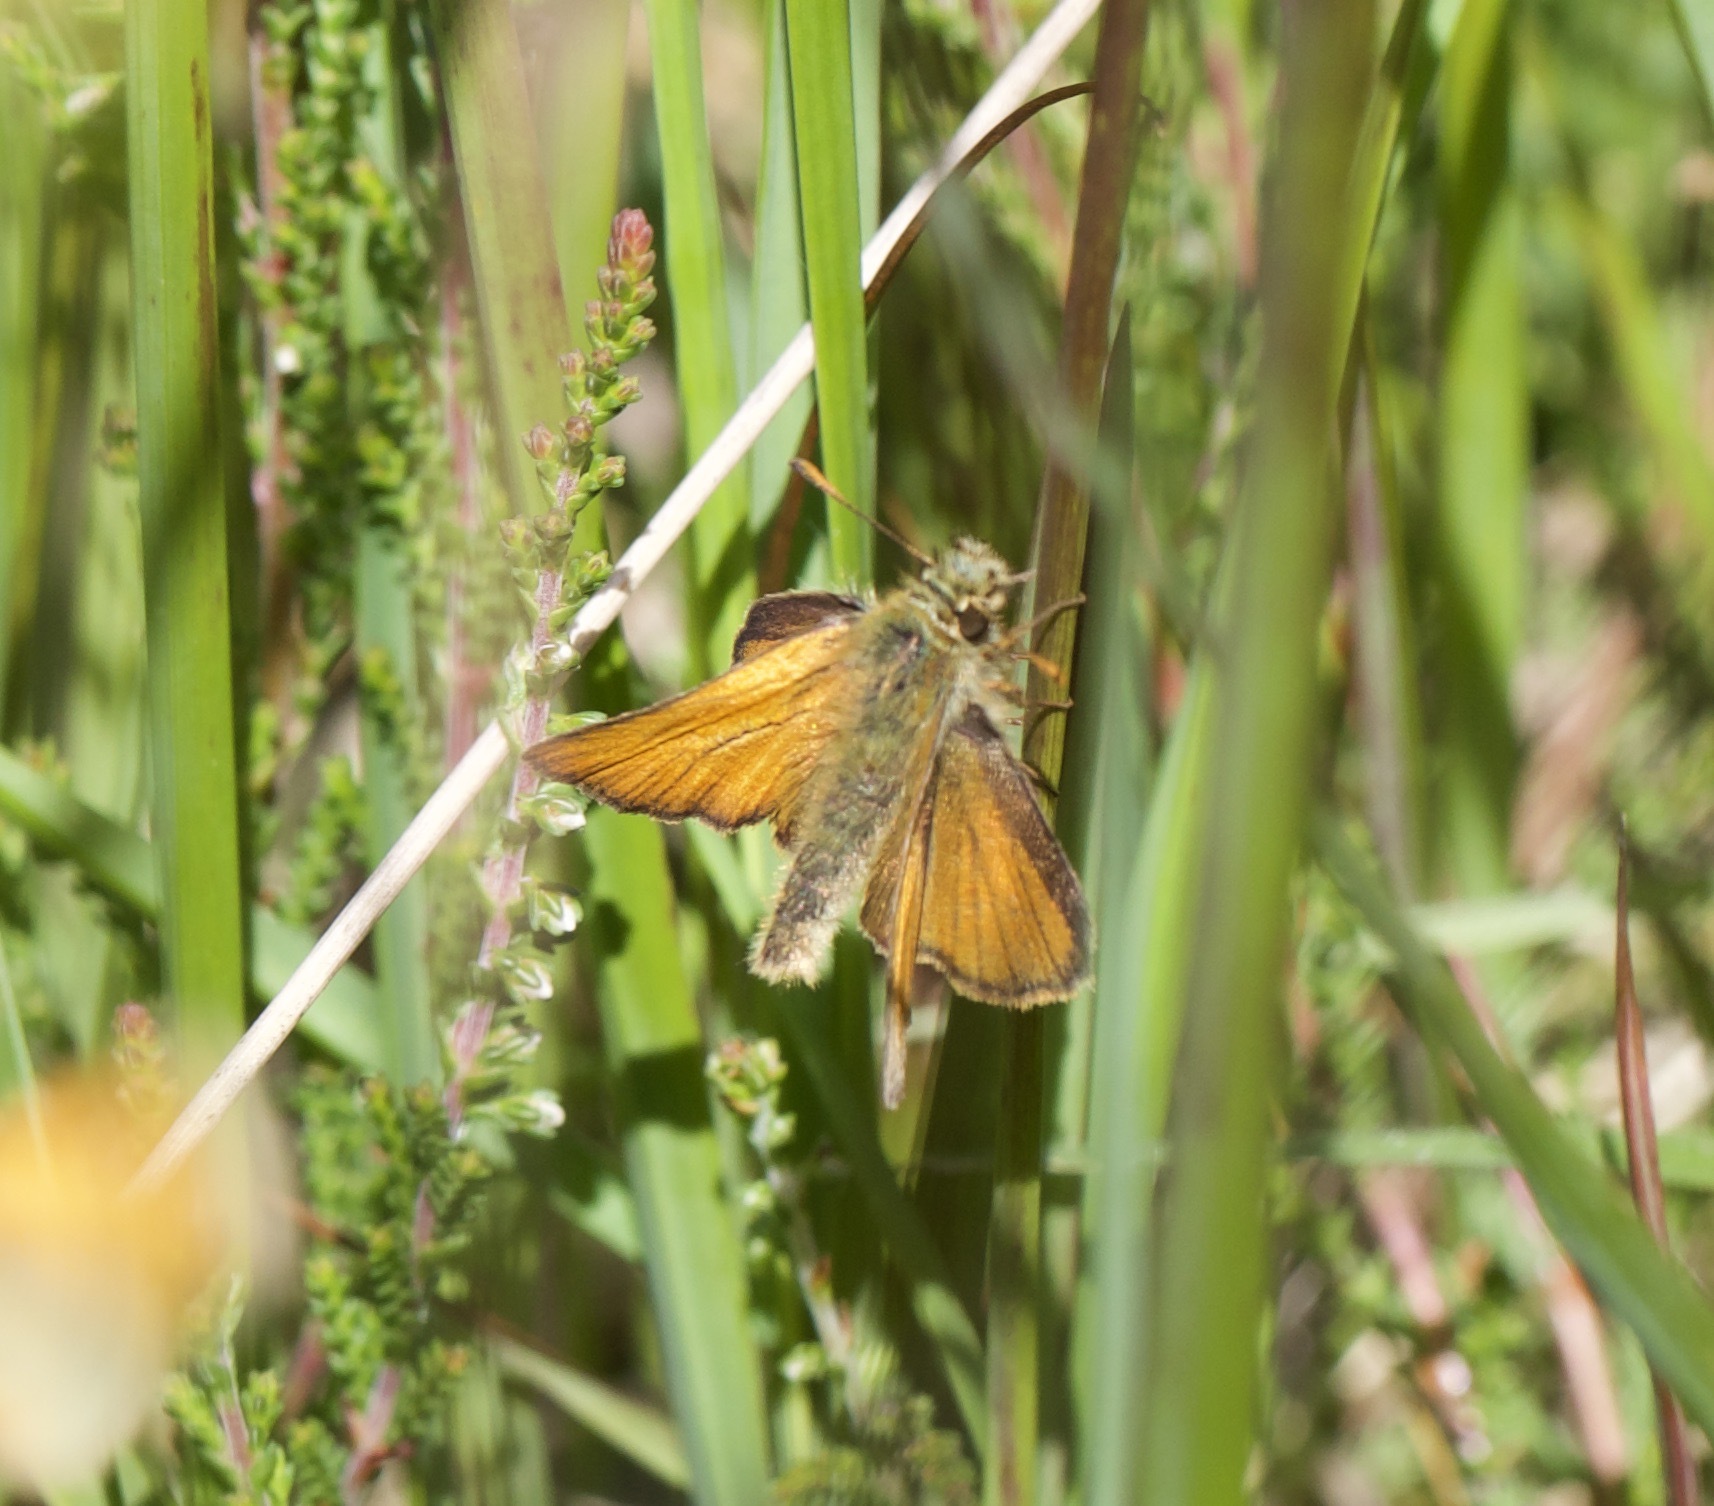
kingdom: Animalia
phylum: Arthropoda
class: Insecta
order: Lepidoptera
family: Hesperiidae
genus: Thymelicus
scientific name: Thymelicus sylvestris
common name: Small skipper
